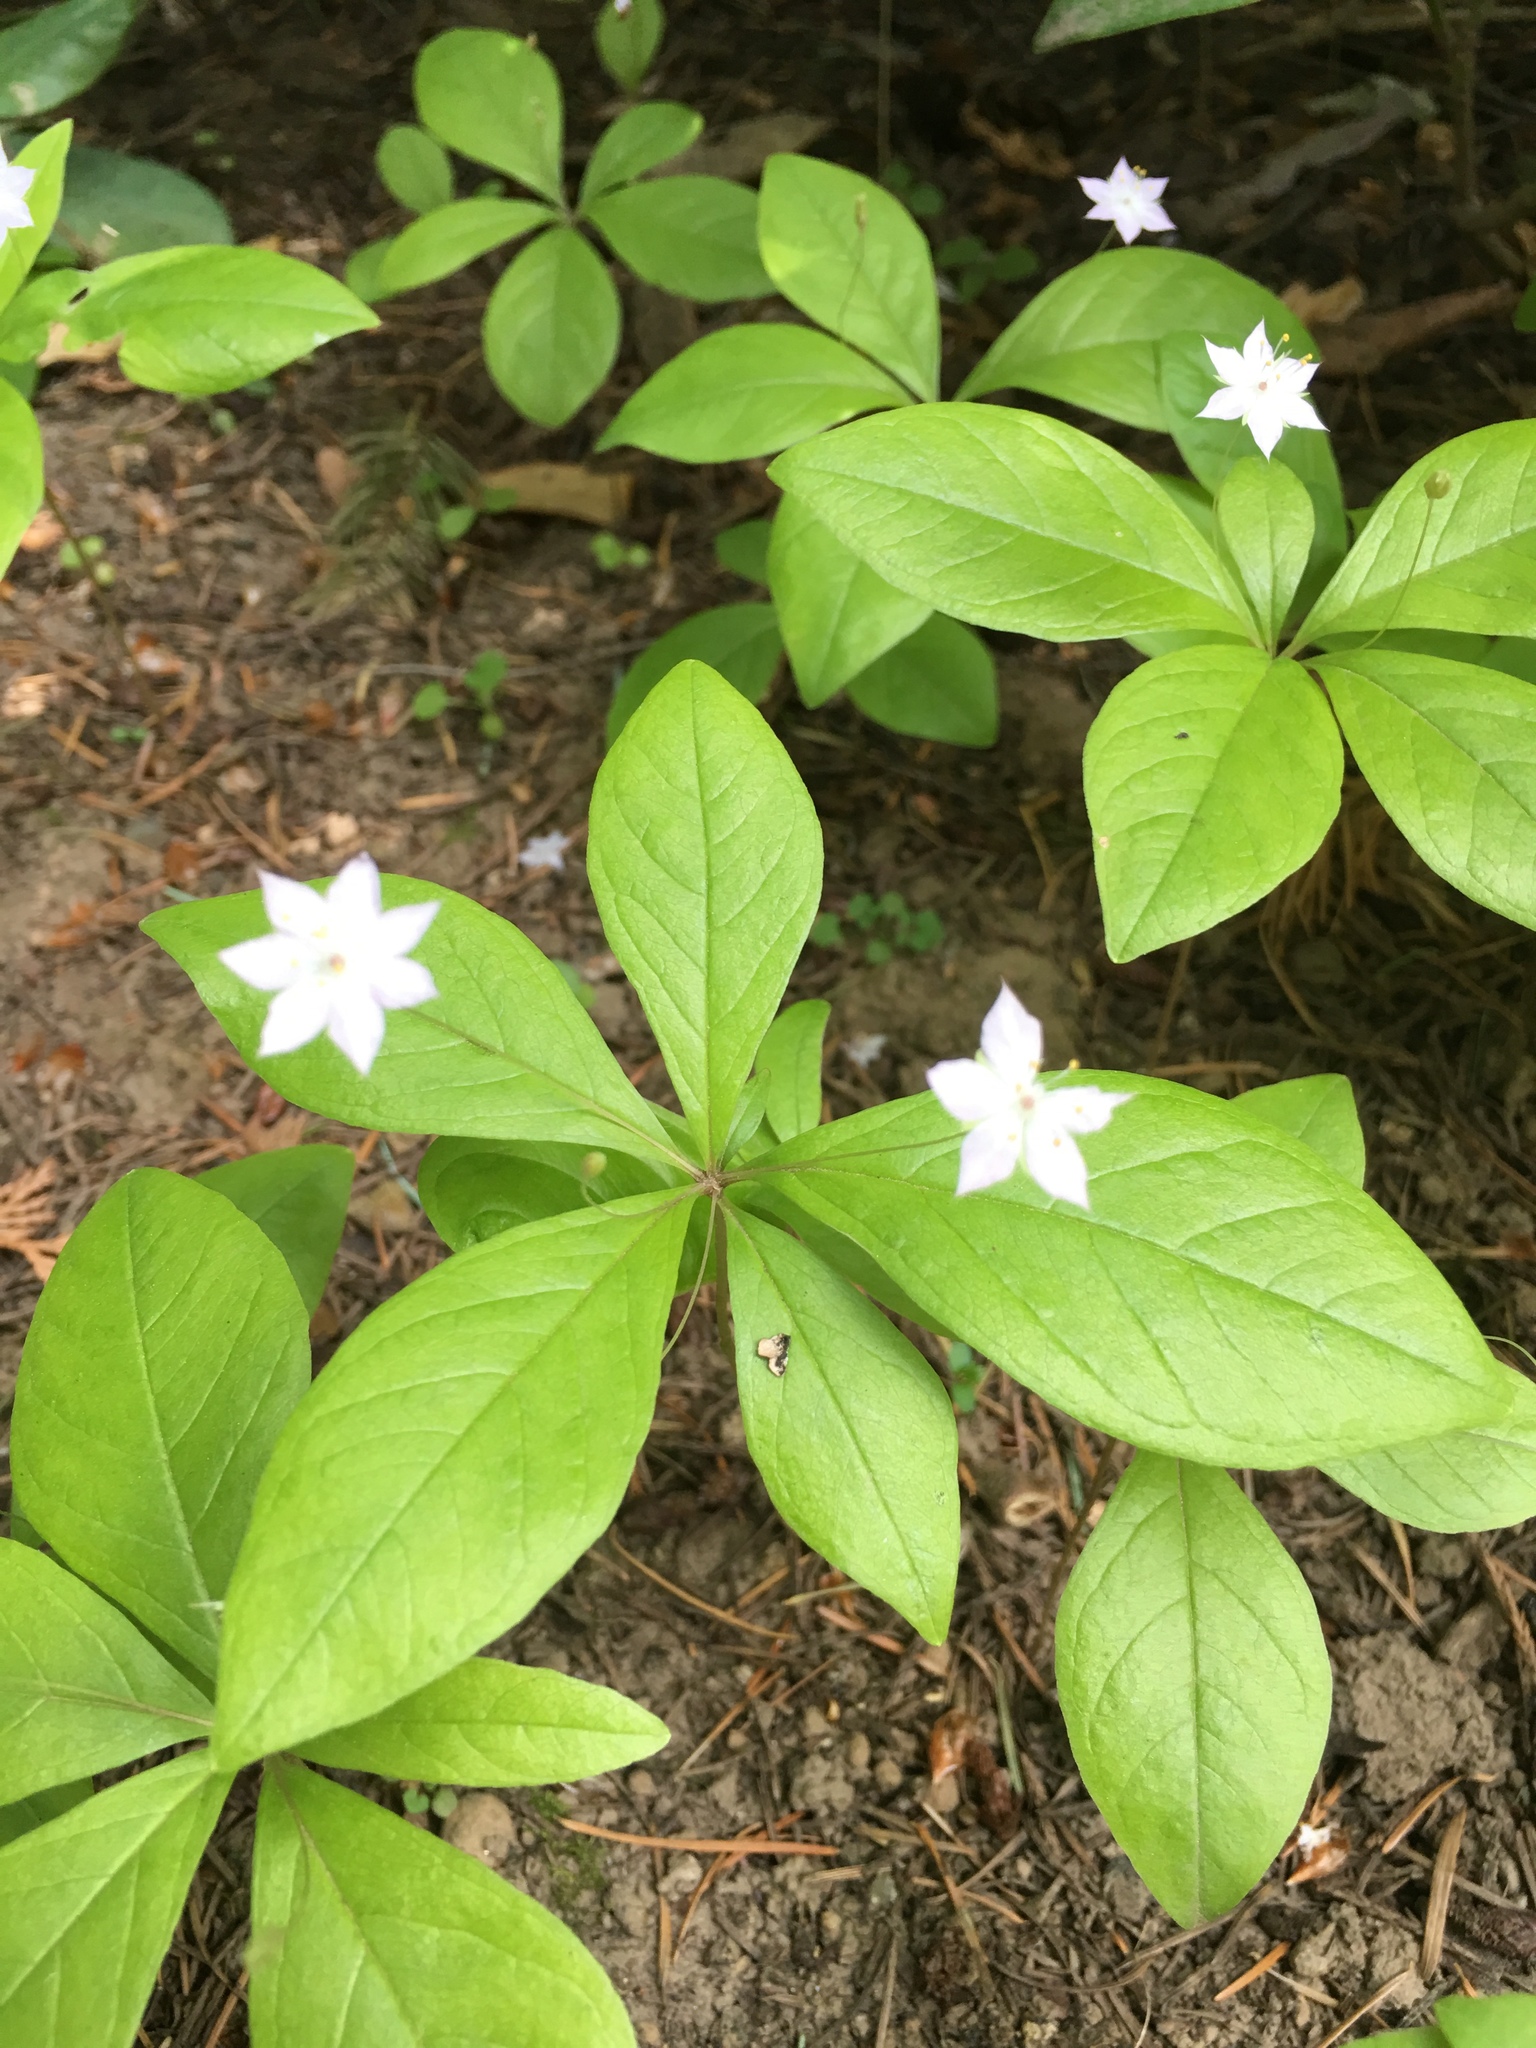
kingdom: Plantae
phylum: Tracheophyta
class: Magnoliopsida
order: Ericales
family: Primulaceae
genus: Lysimachia
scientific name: Lysimachia latifolia
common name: Pacific starflower
